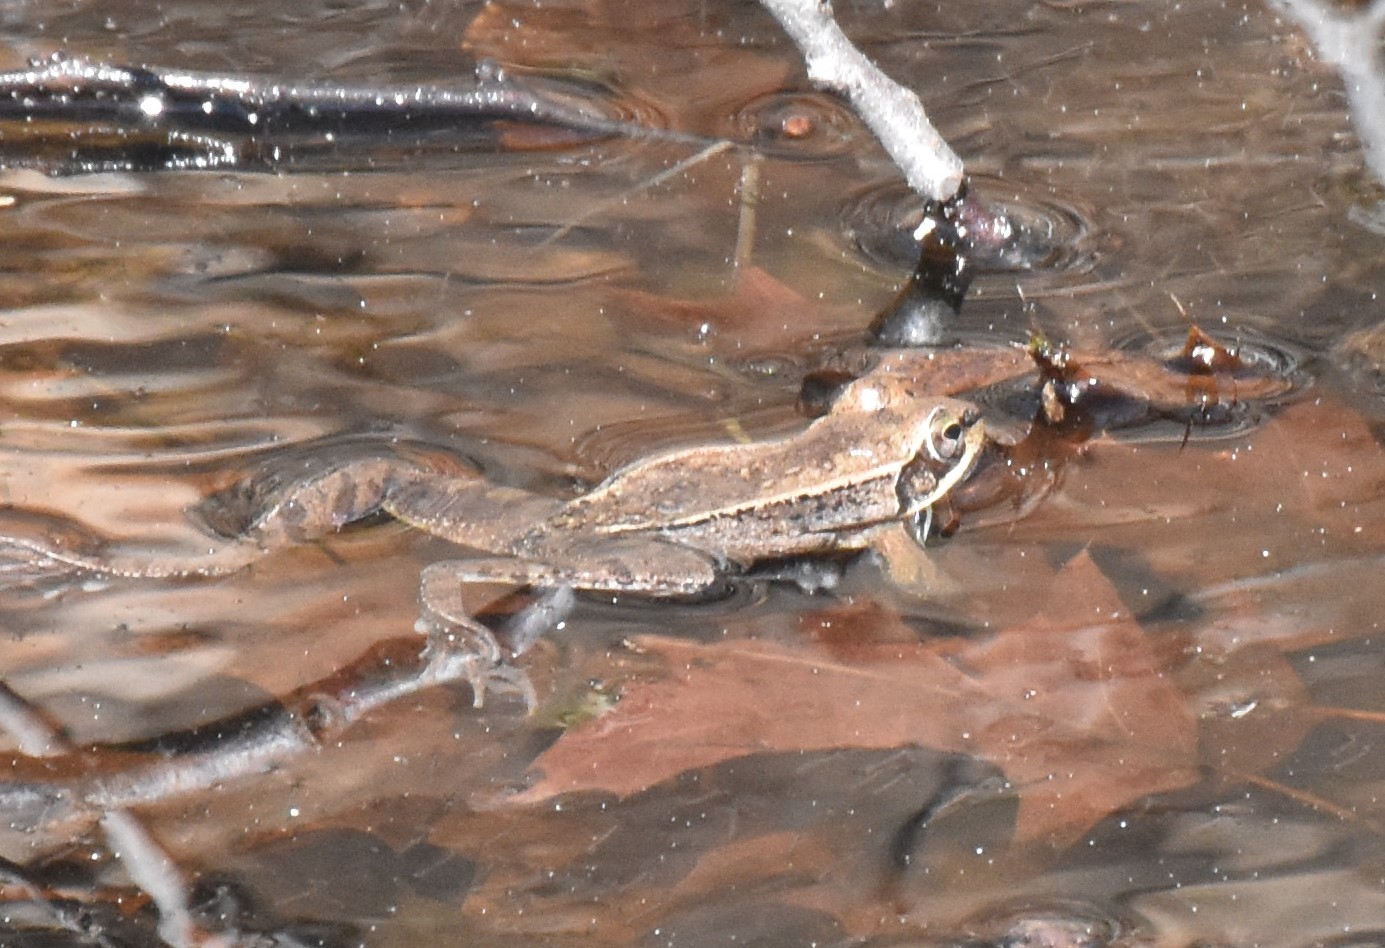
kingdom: Animalia
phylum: Chordata
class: Amphibia
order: Anura
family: Ranidae
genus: Lithobates
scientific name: Lithobates sylvaticus
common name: Wood frog
